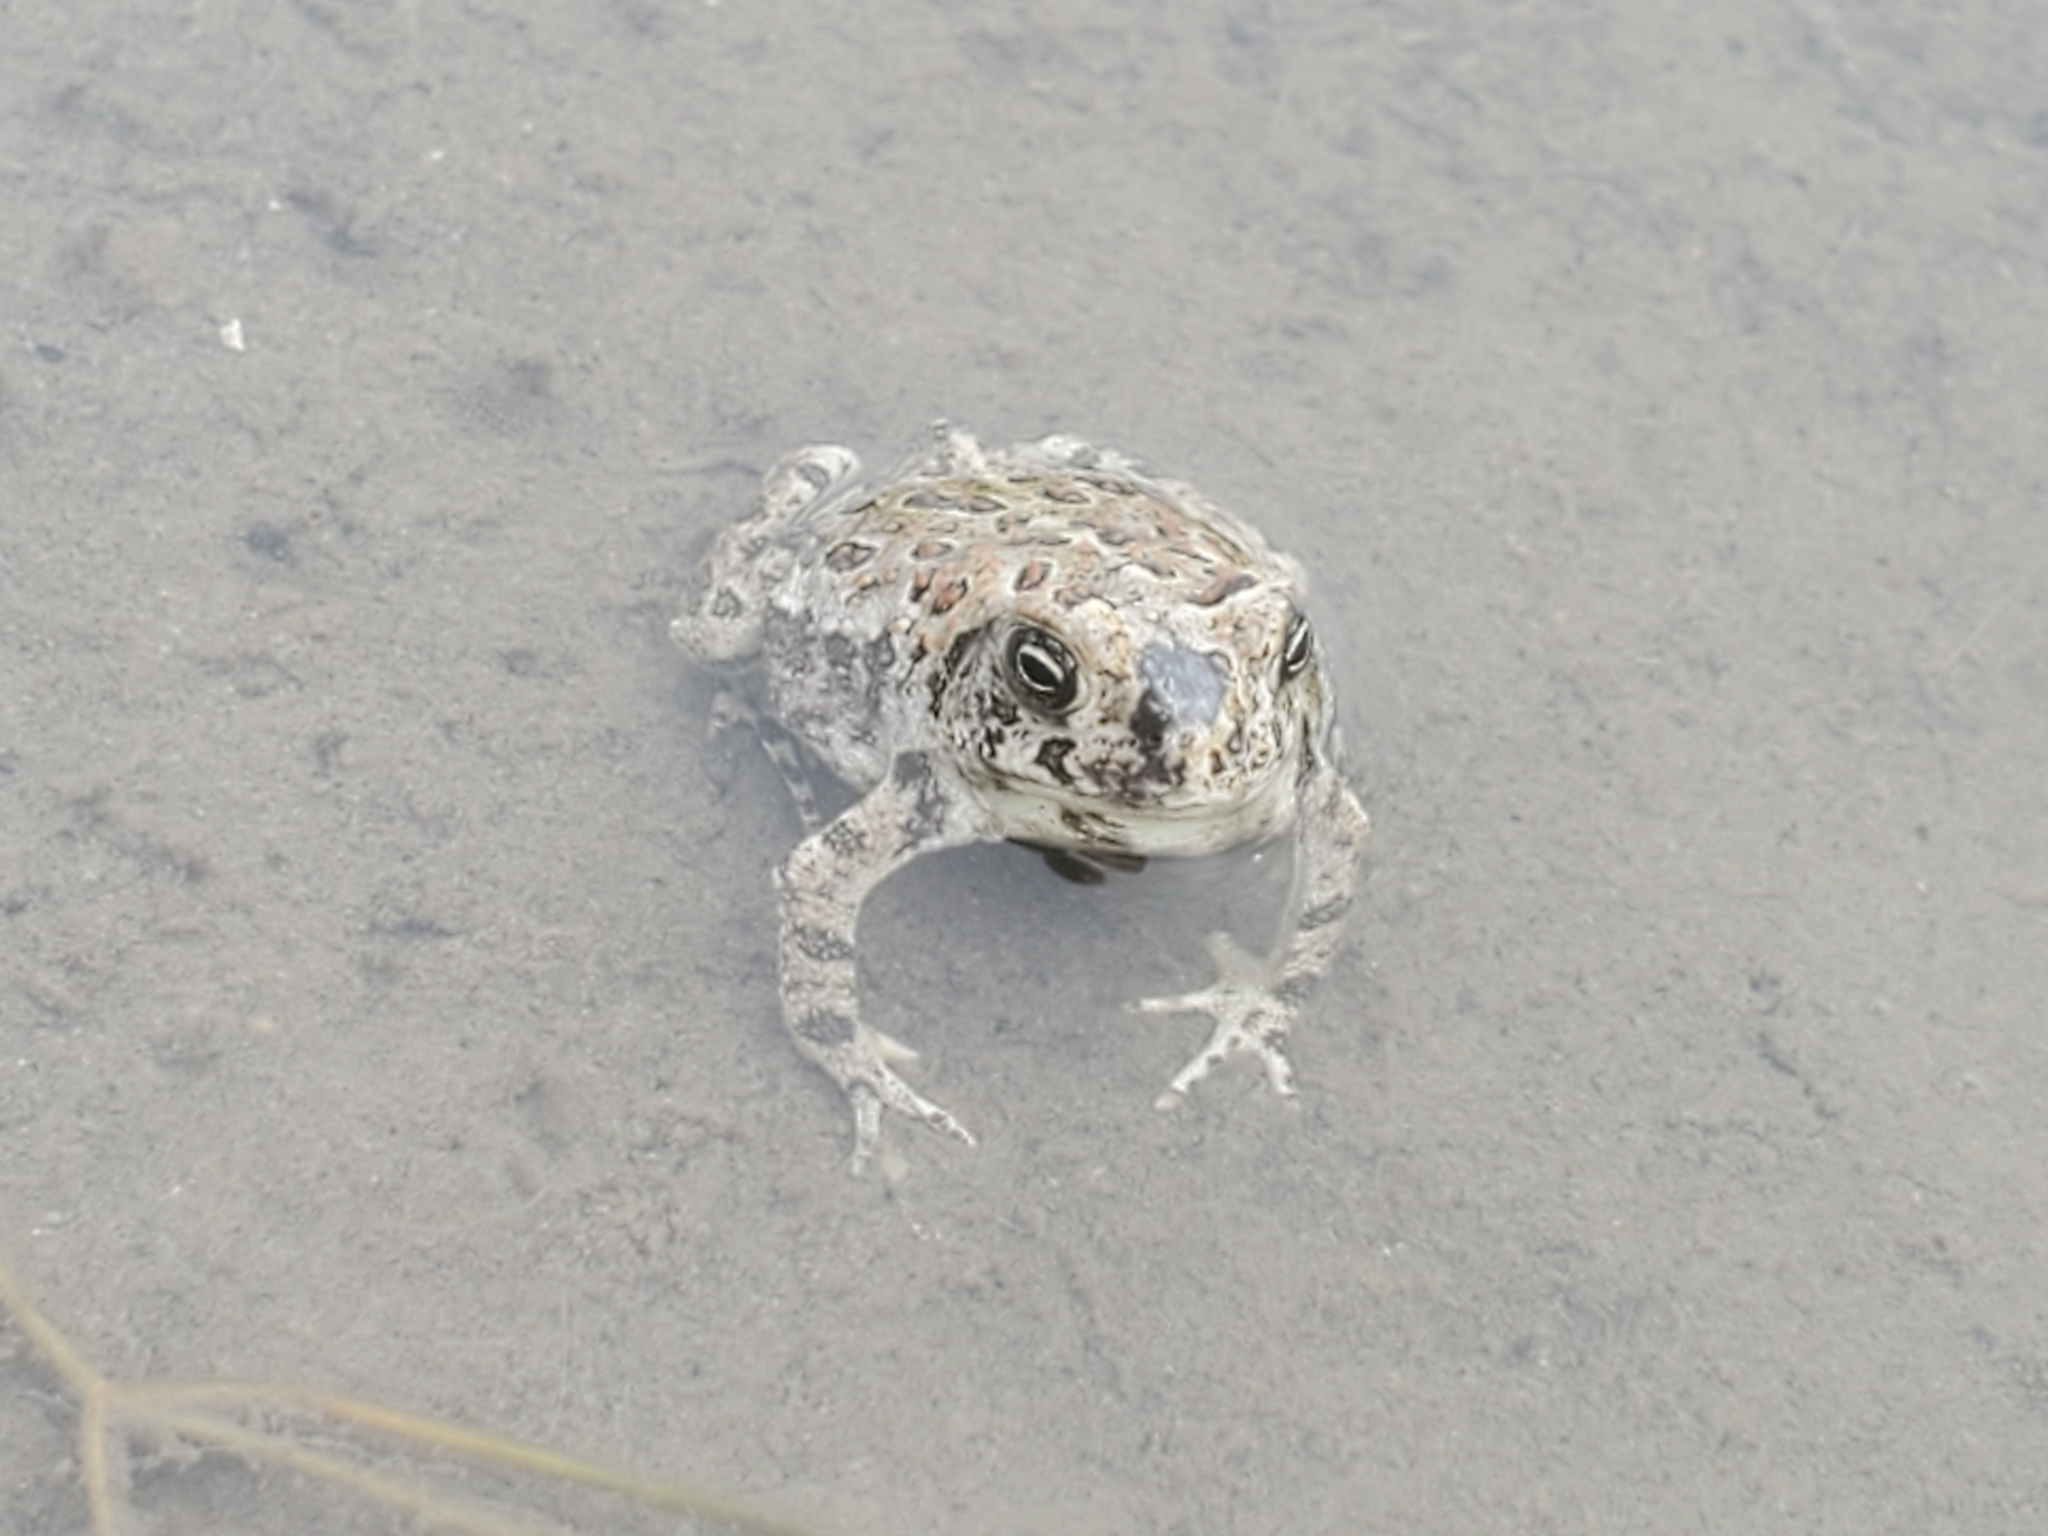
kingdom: Animalia
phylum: Chordata
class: Amphibia
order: Anura
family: Bufonidae
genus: Anaxyrus
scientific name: Anaxyrus boreas
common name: Western toad
